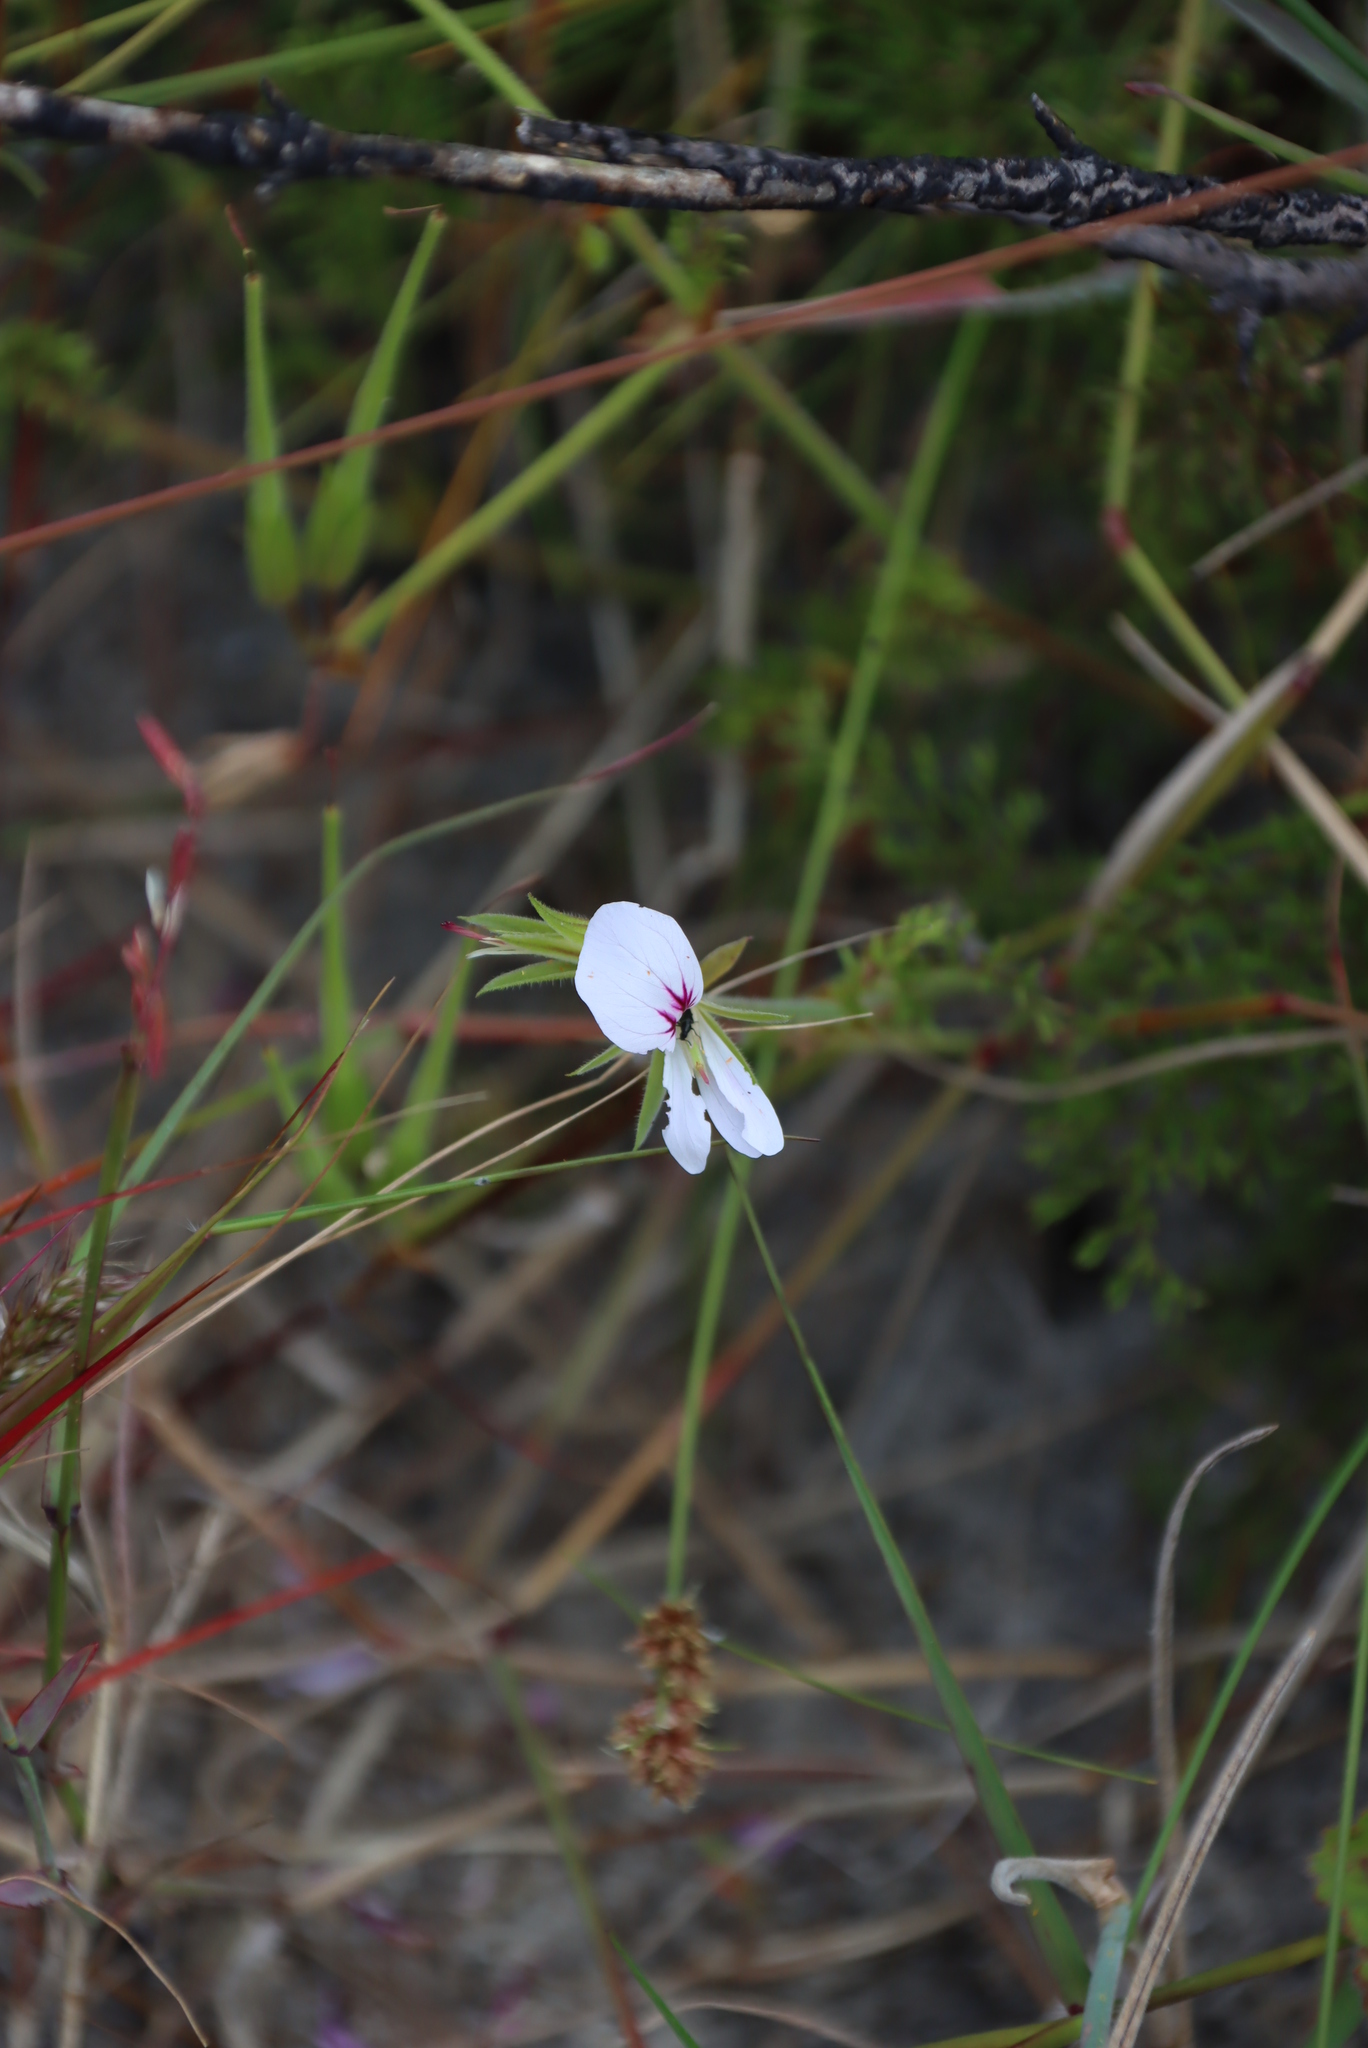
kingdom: Plantae
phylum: Tracheophyta
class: Magnoliopsida
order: Geraniales
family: Geraniaceae
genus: Pelargonium
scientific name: Pelargonium myrrhifolium
